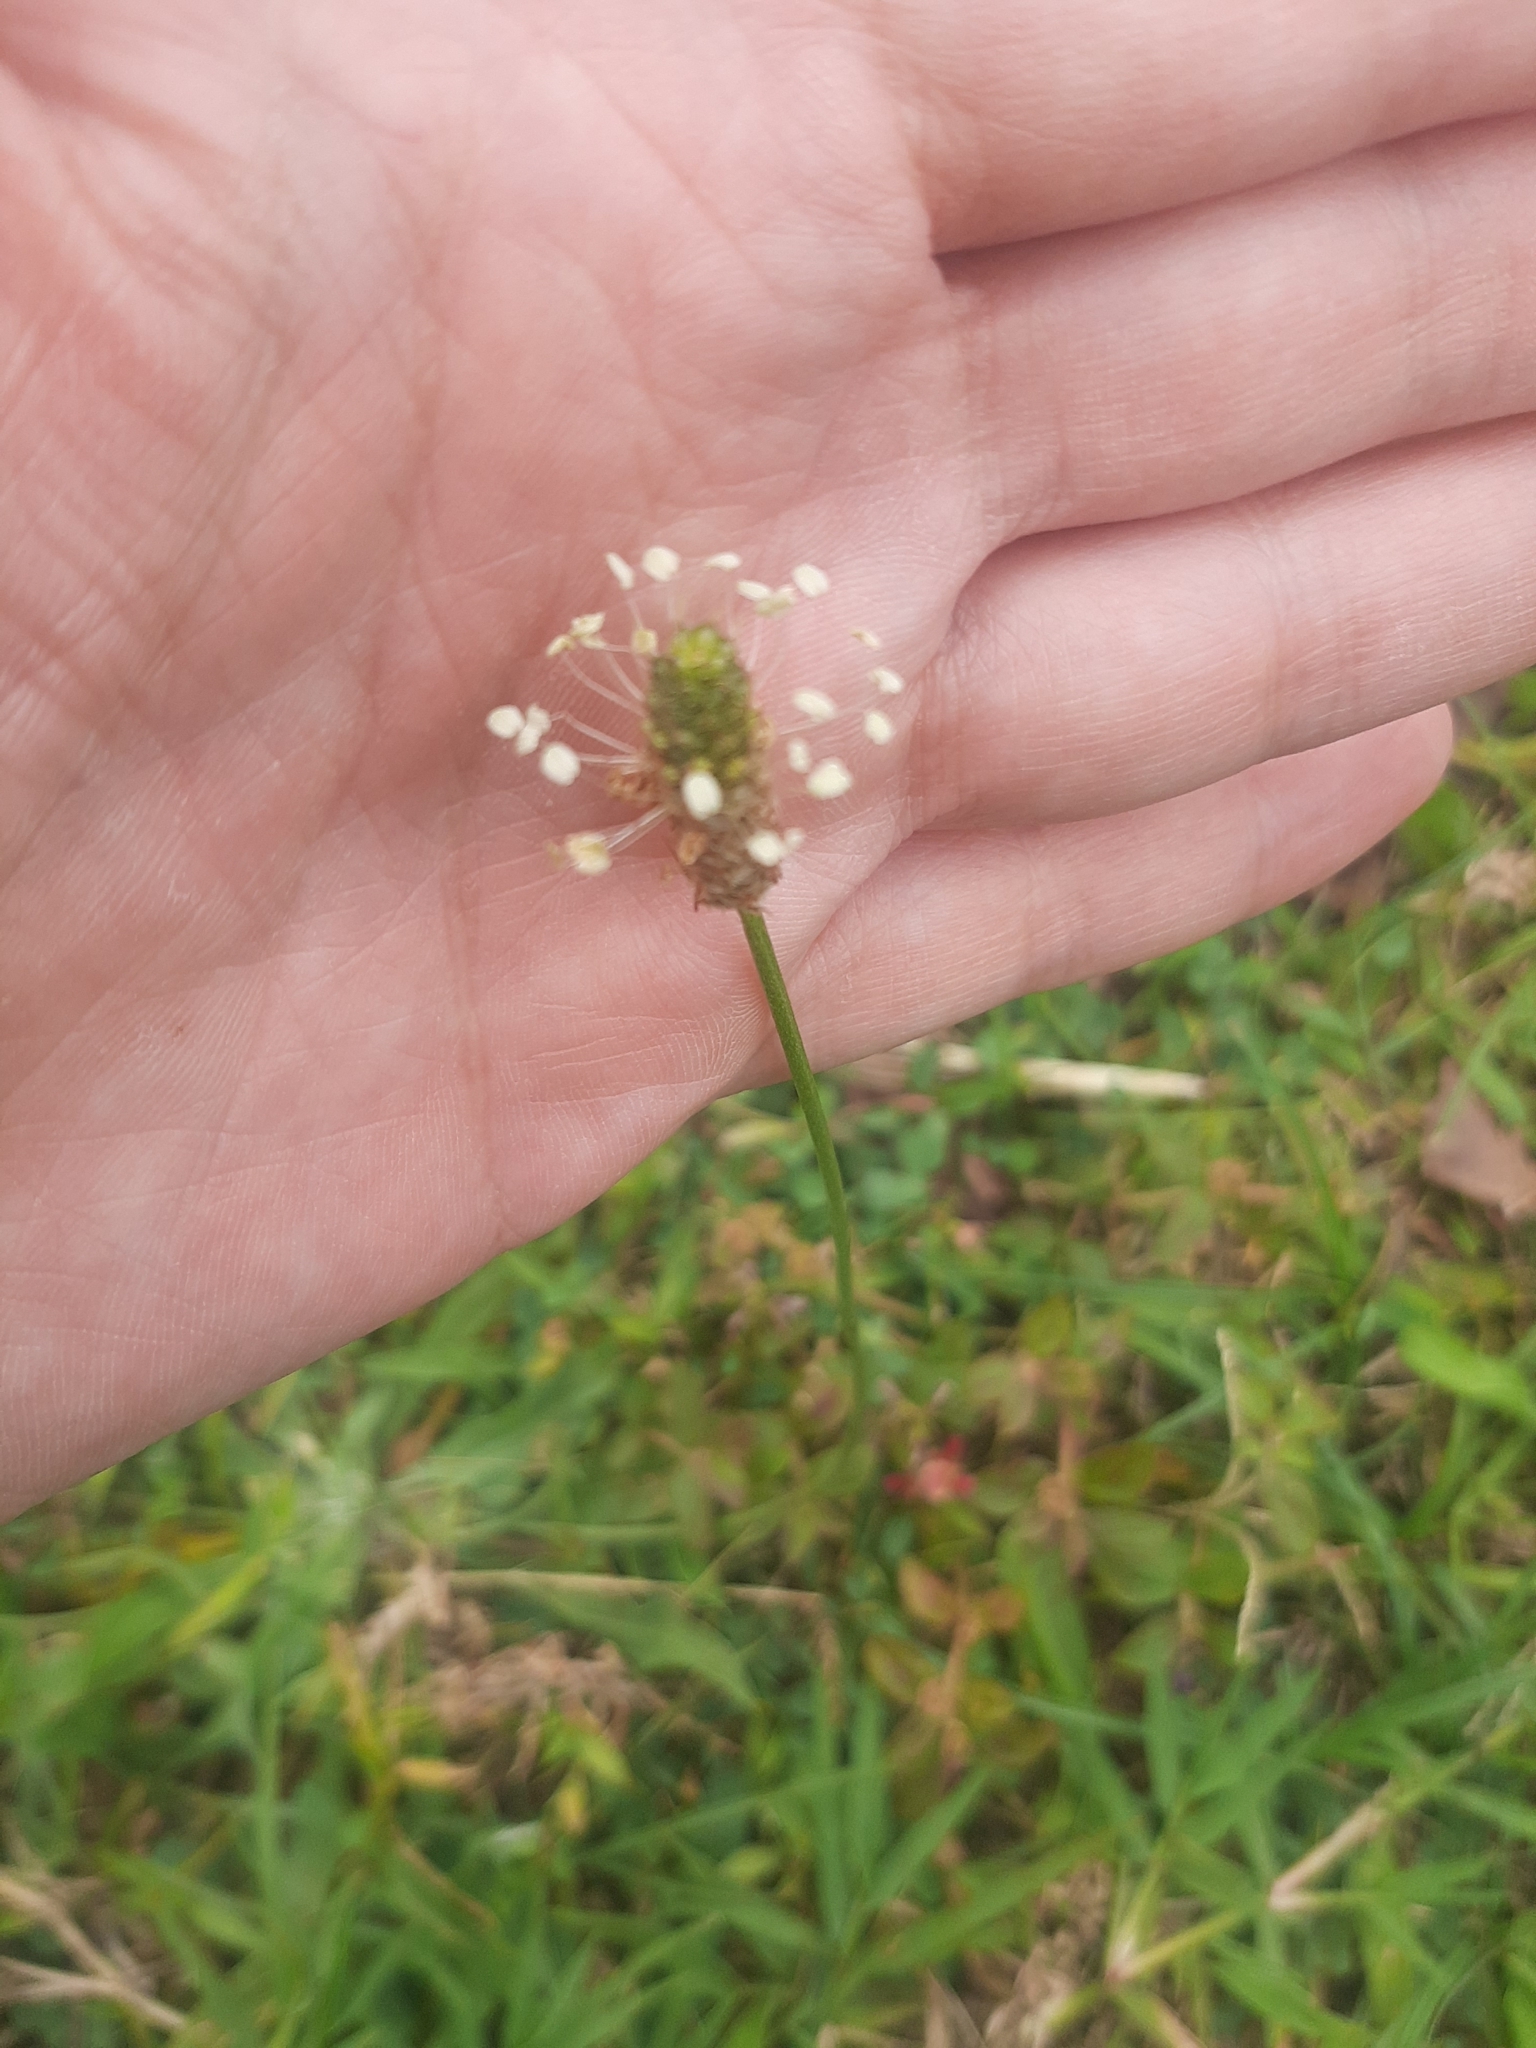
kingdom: Plantae
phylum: Tracheophyta
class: Magnoliopsida
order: Lamiales
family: Plantaginaceae
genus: Plantago
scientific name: Plantago lanceolata
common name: Ribwort plantain
